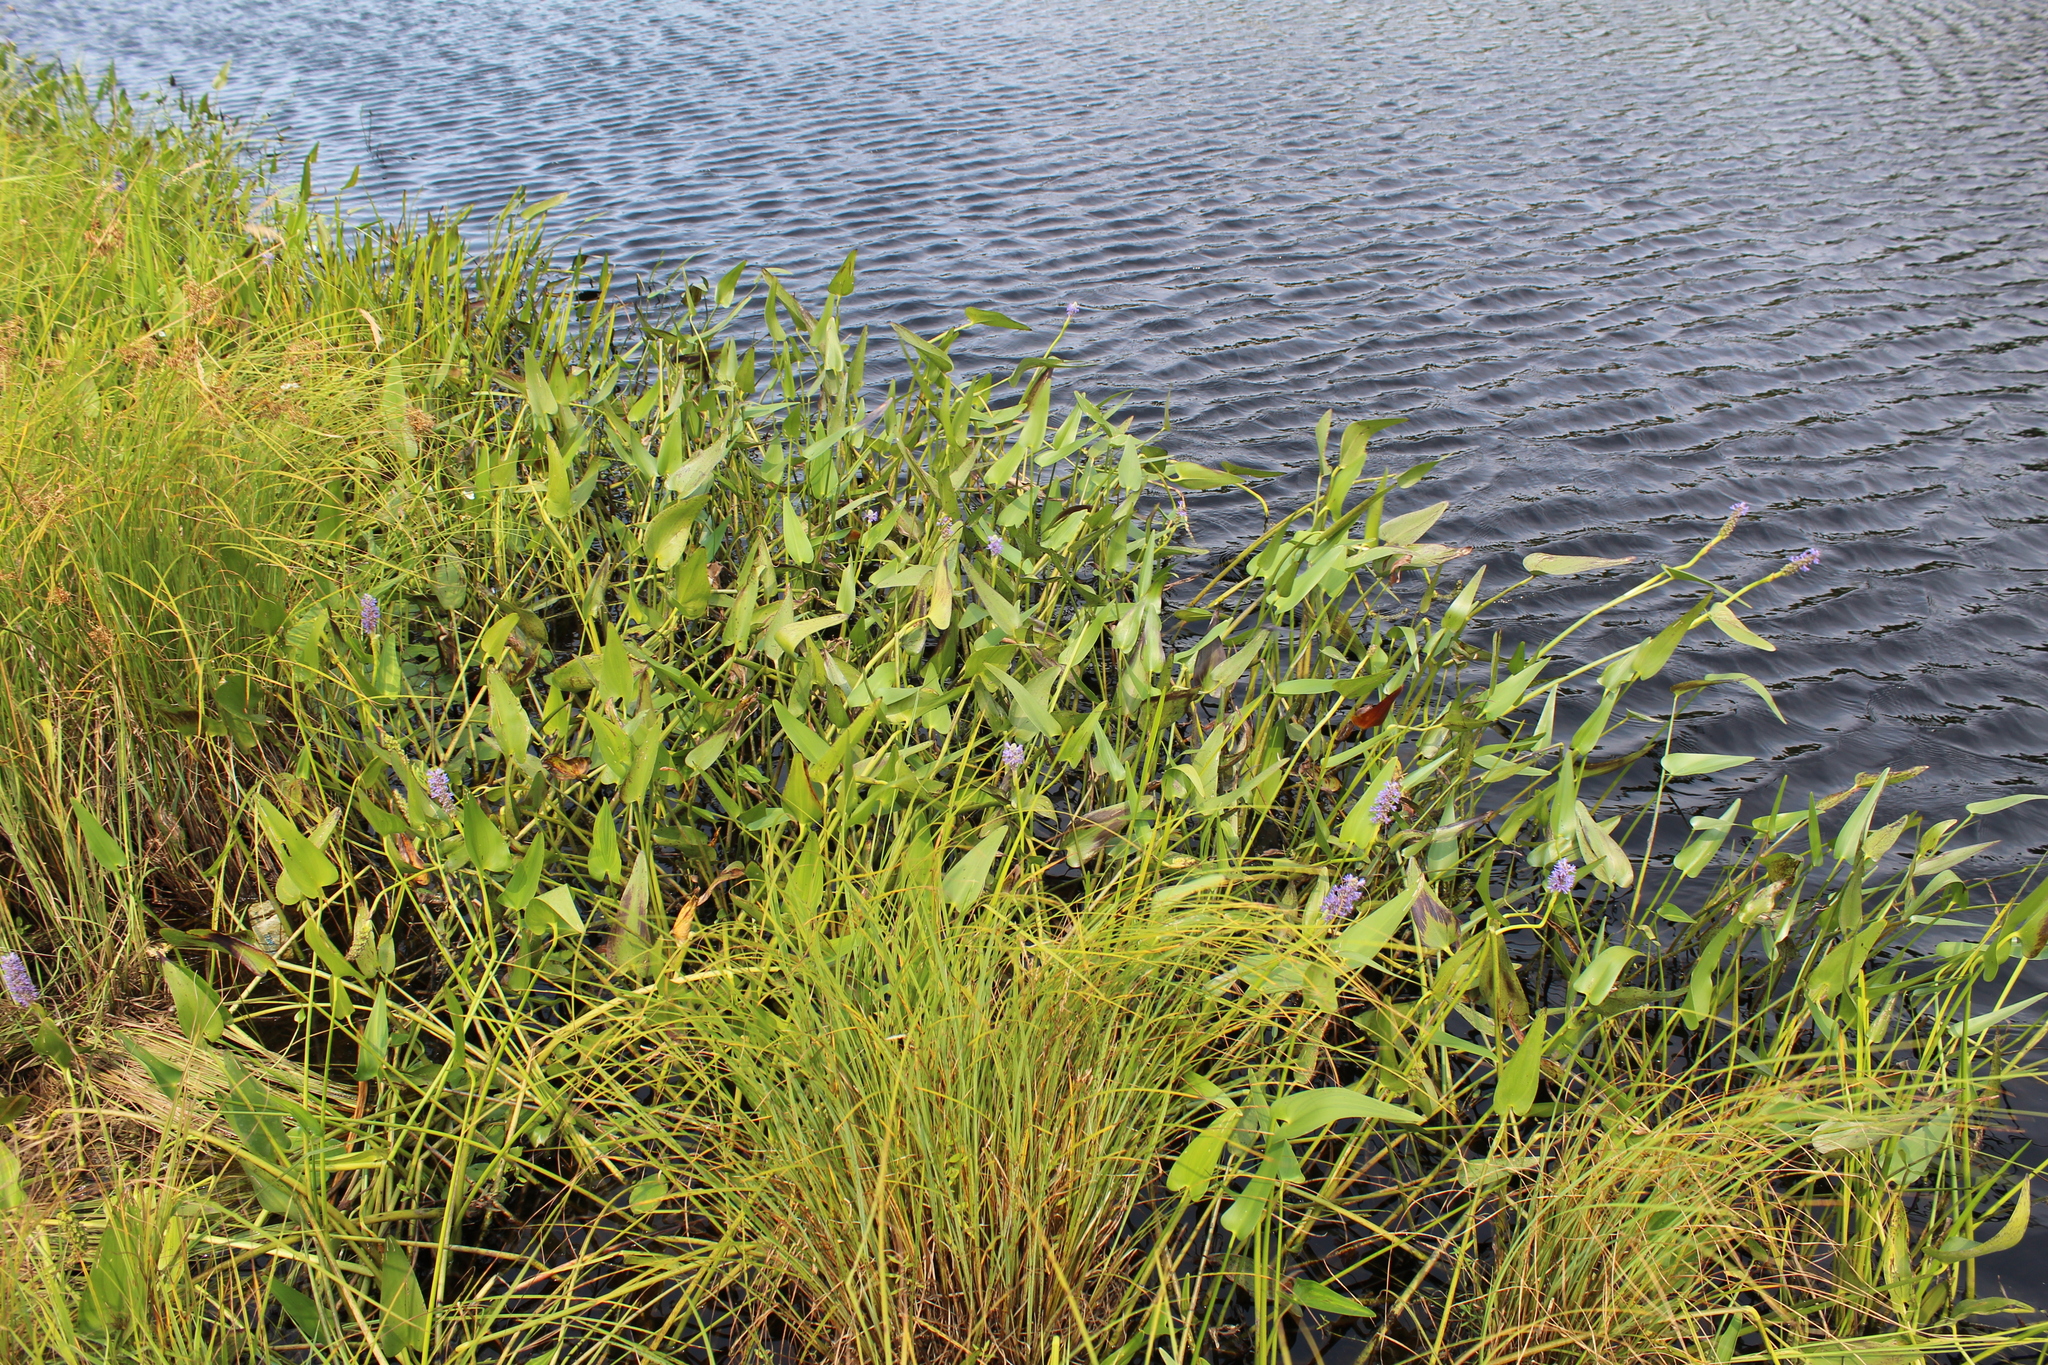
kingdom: Plantae
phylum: Tracheophyta
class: Liliopsida
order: Commelinales
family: Pontederiaceae
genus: Pontederia
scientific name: Pontederia cordata
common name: Pickerelweed
